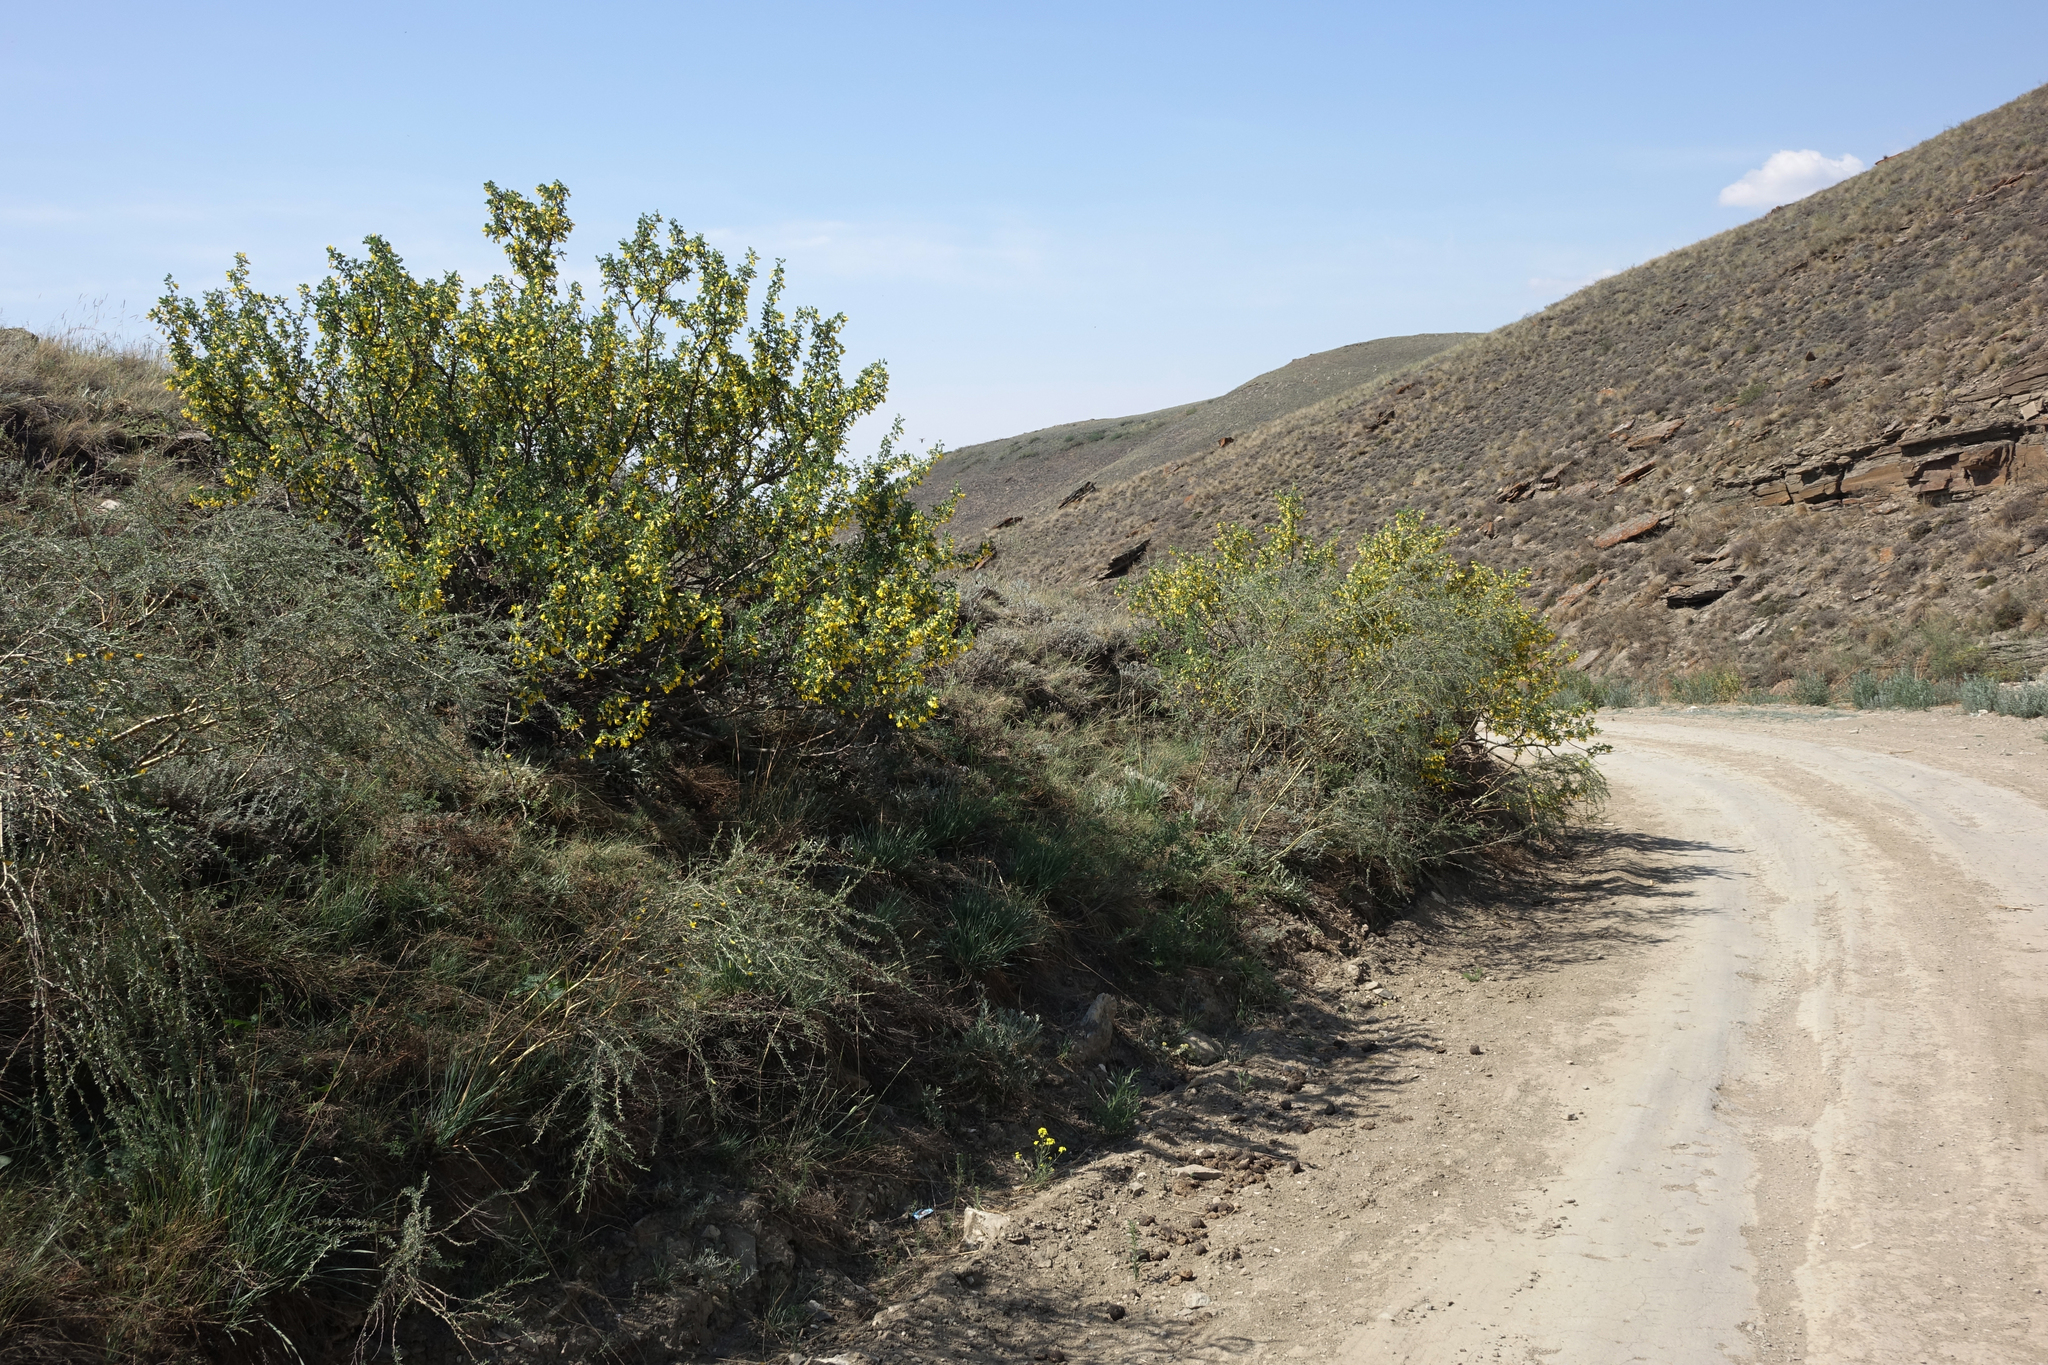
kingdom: Plantae
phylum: Tracheophyta
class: Magnoliopsida
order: Fabales
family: Fabaceae
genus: Caragana
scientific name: Caragana bungei
